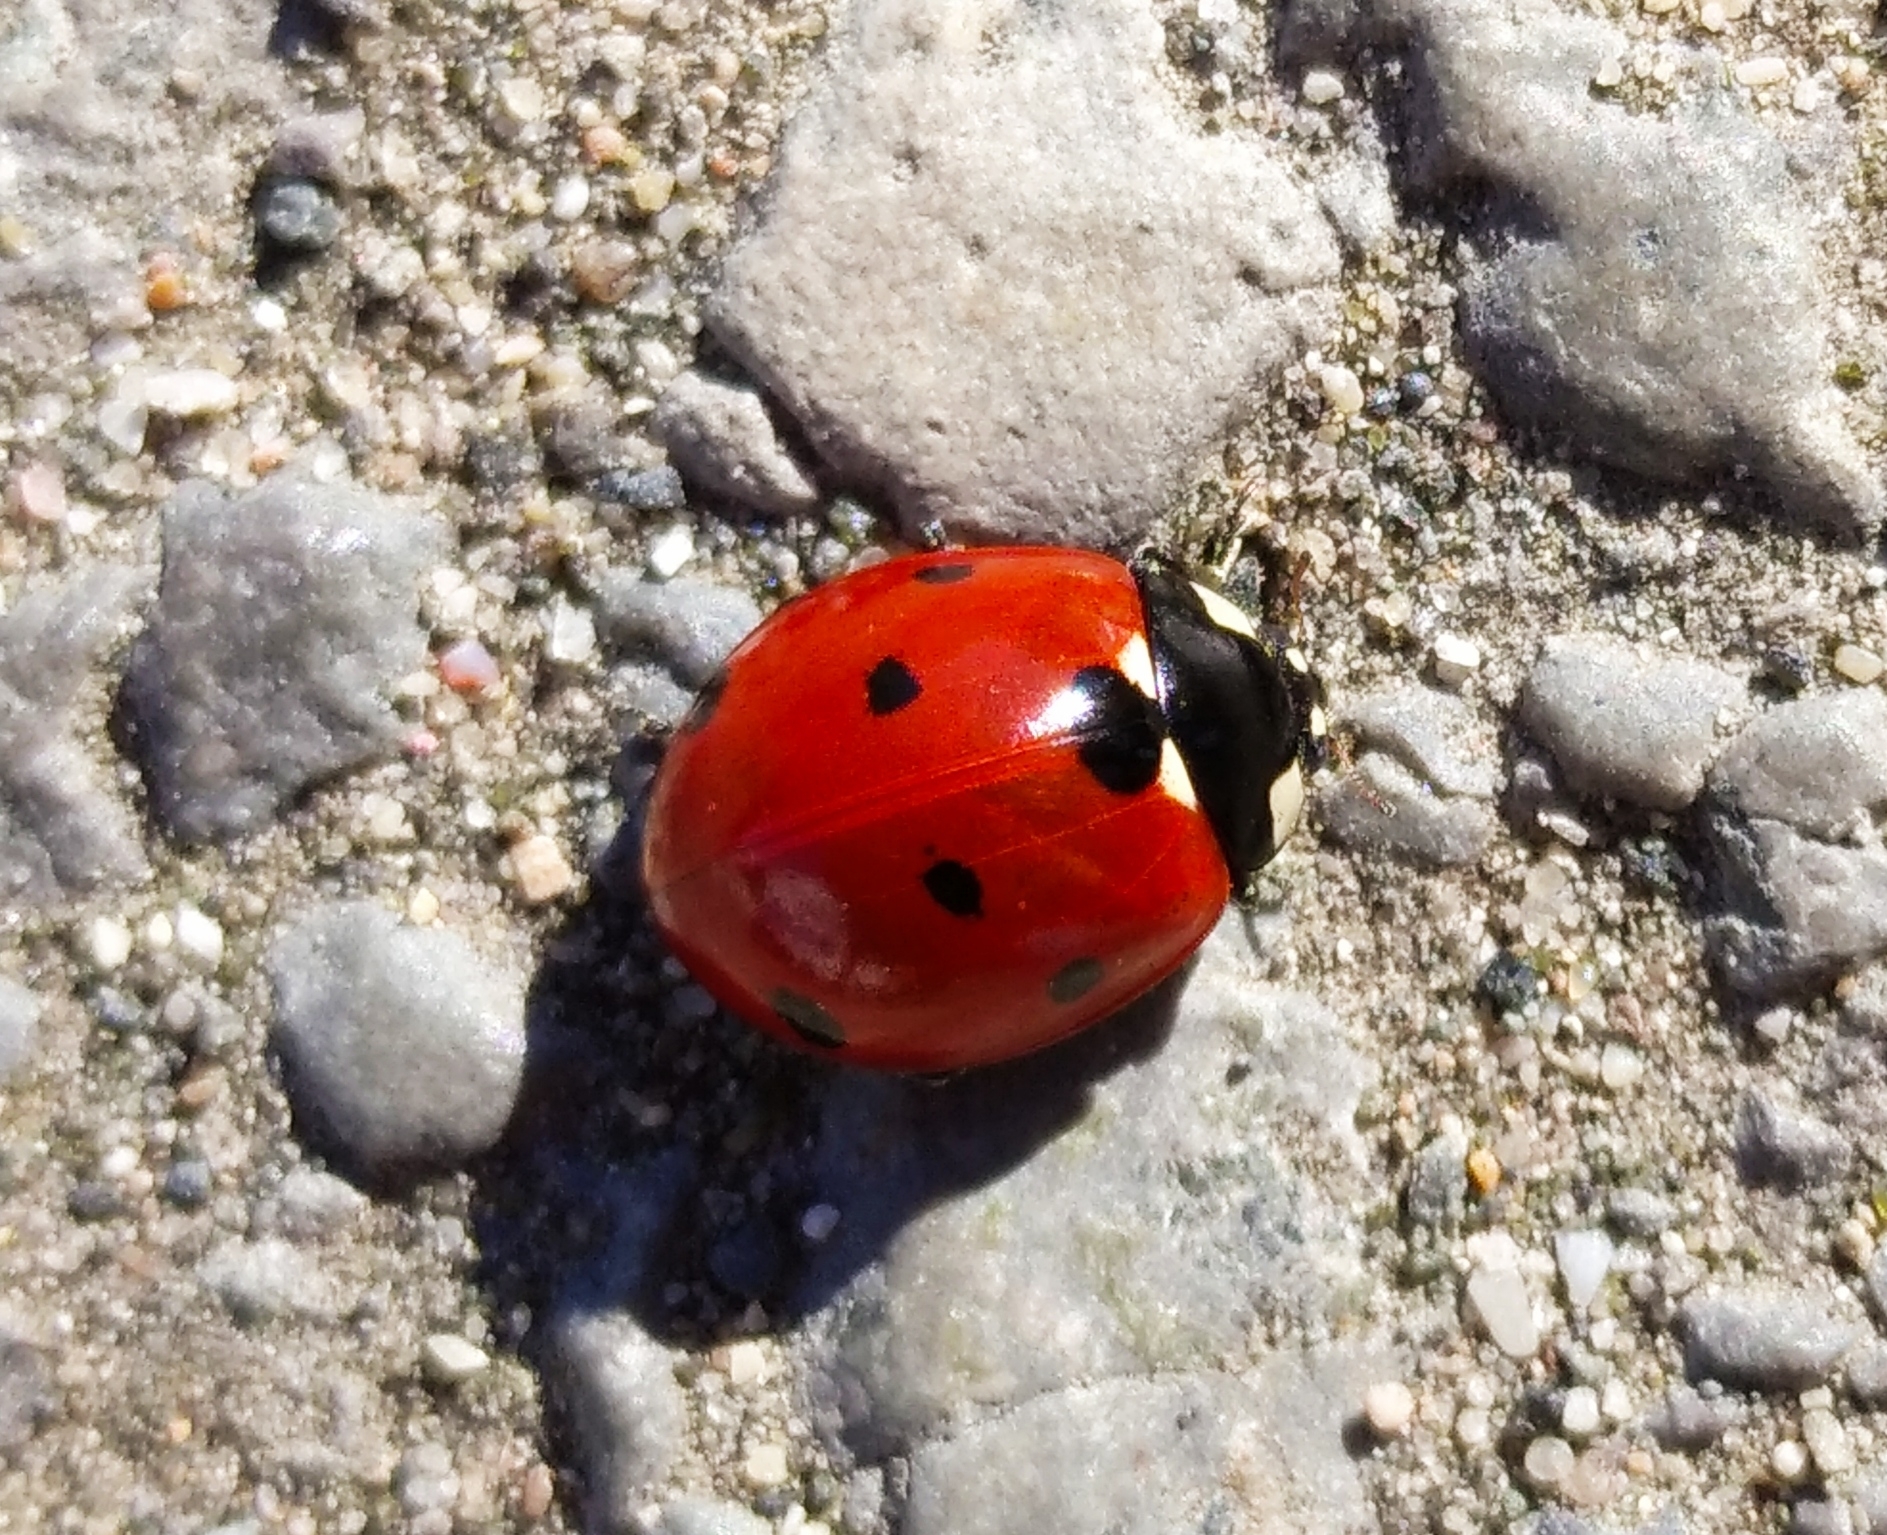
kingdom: Animalia
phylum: Arthropoda
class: Insecta
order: Coleoptera
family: Coccinellidae
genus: Coccinella
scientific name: Coccinella septempunctata
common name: Sevenspotted lady beetle
